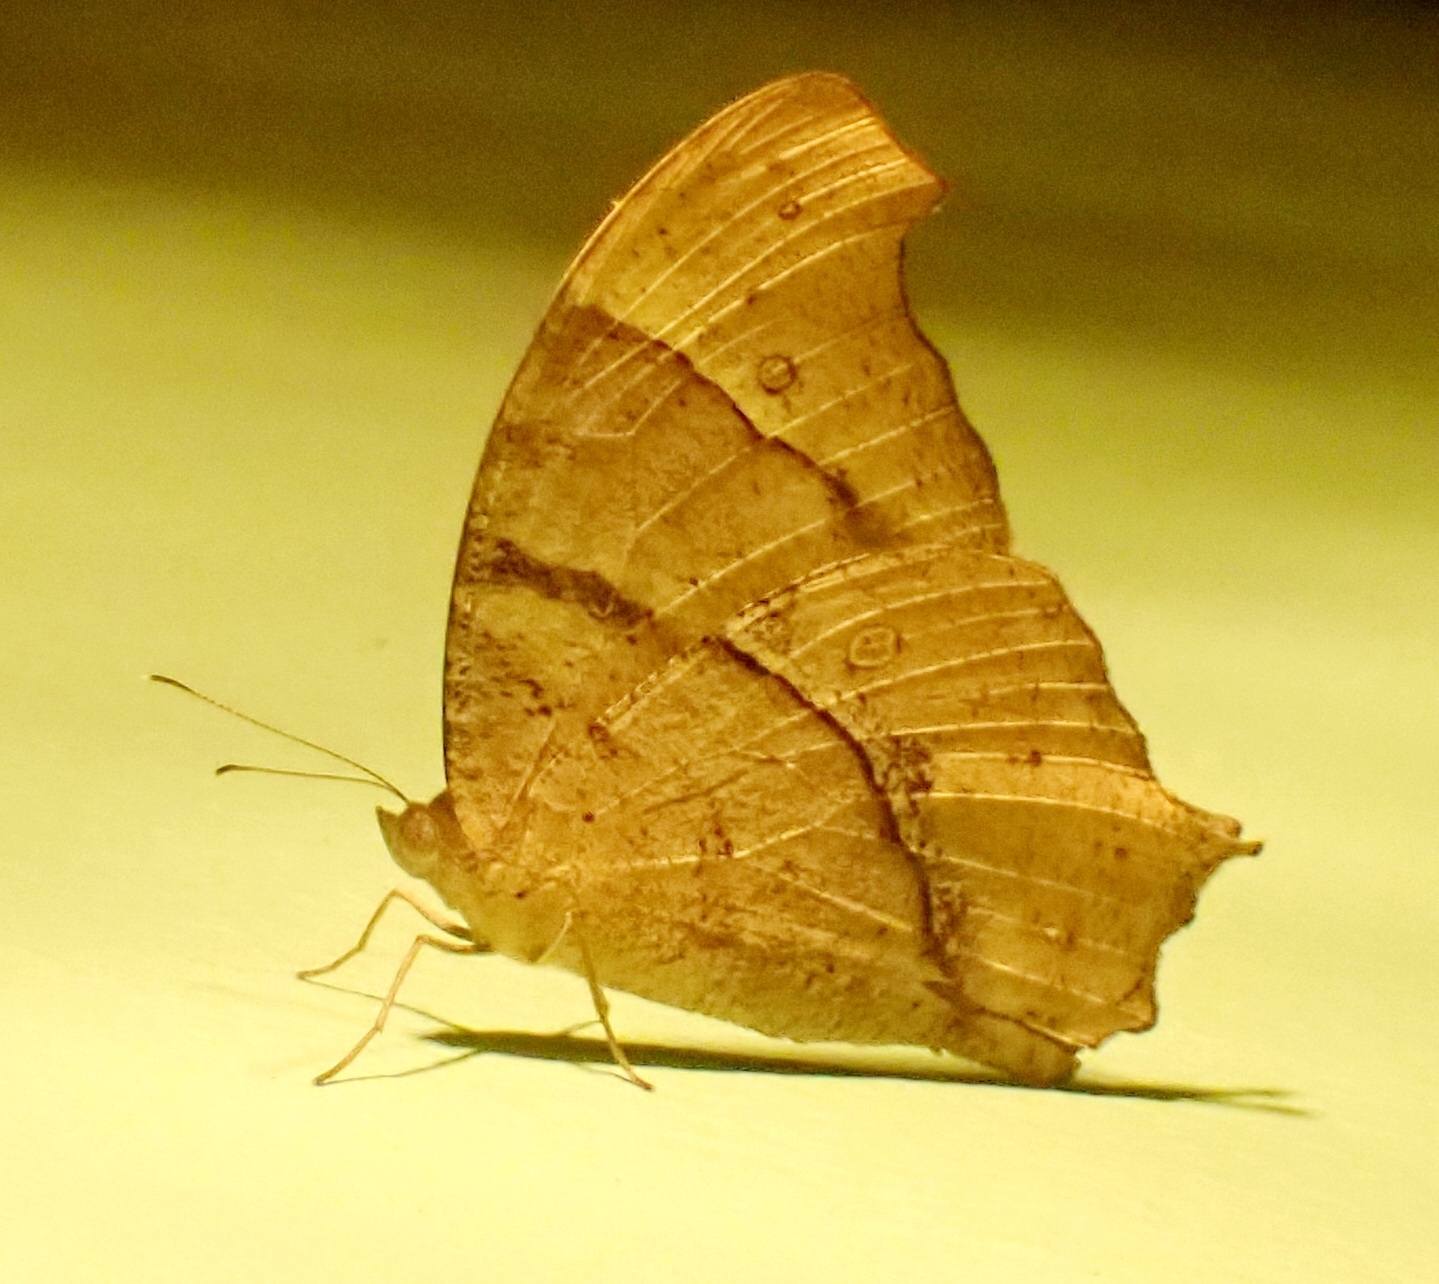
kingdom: Animalia
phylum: Arthropoda
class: Insecta
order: Lepidoptera
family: Nymphalidae
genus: Melanitis
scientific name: Melanitis leda
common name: Twilight brown
